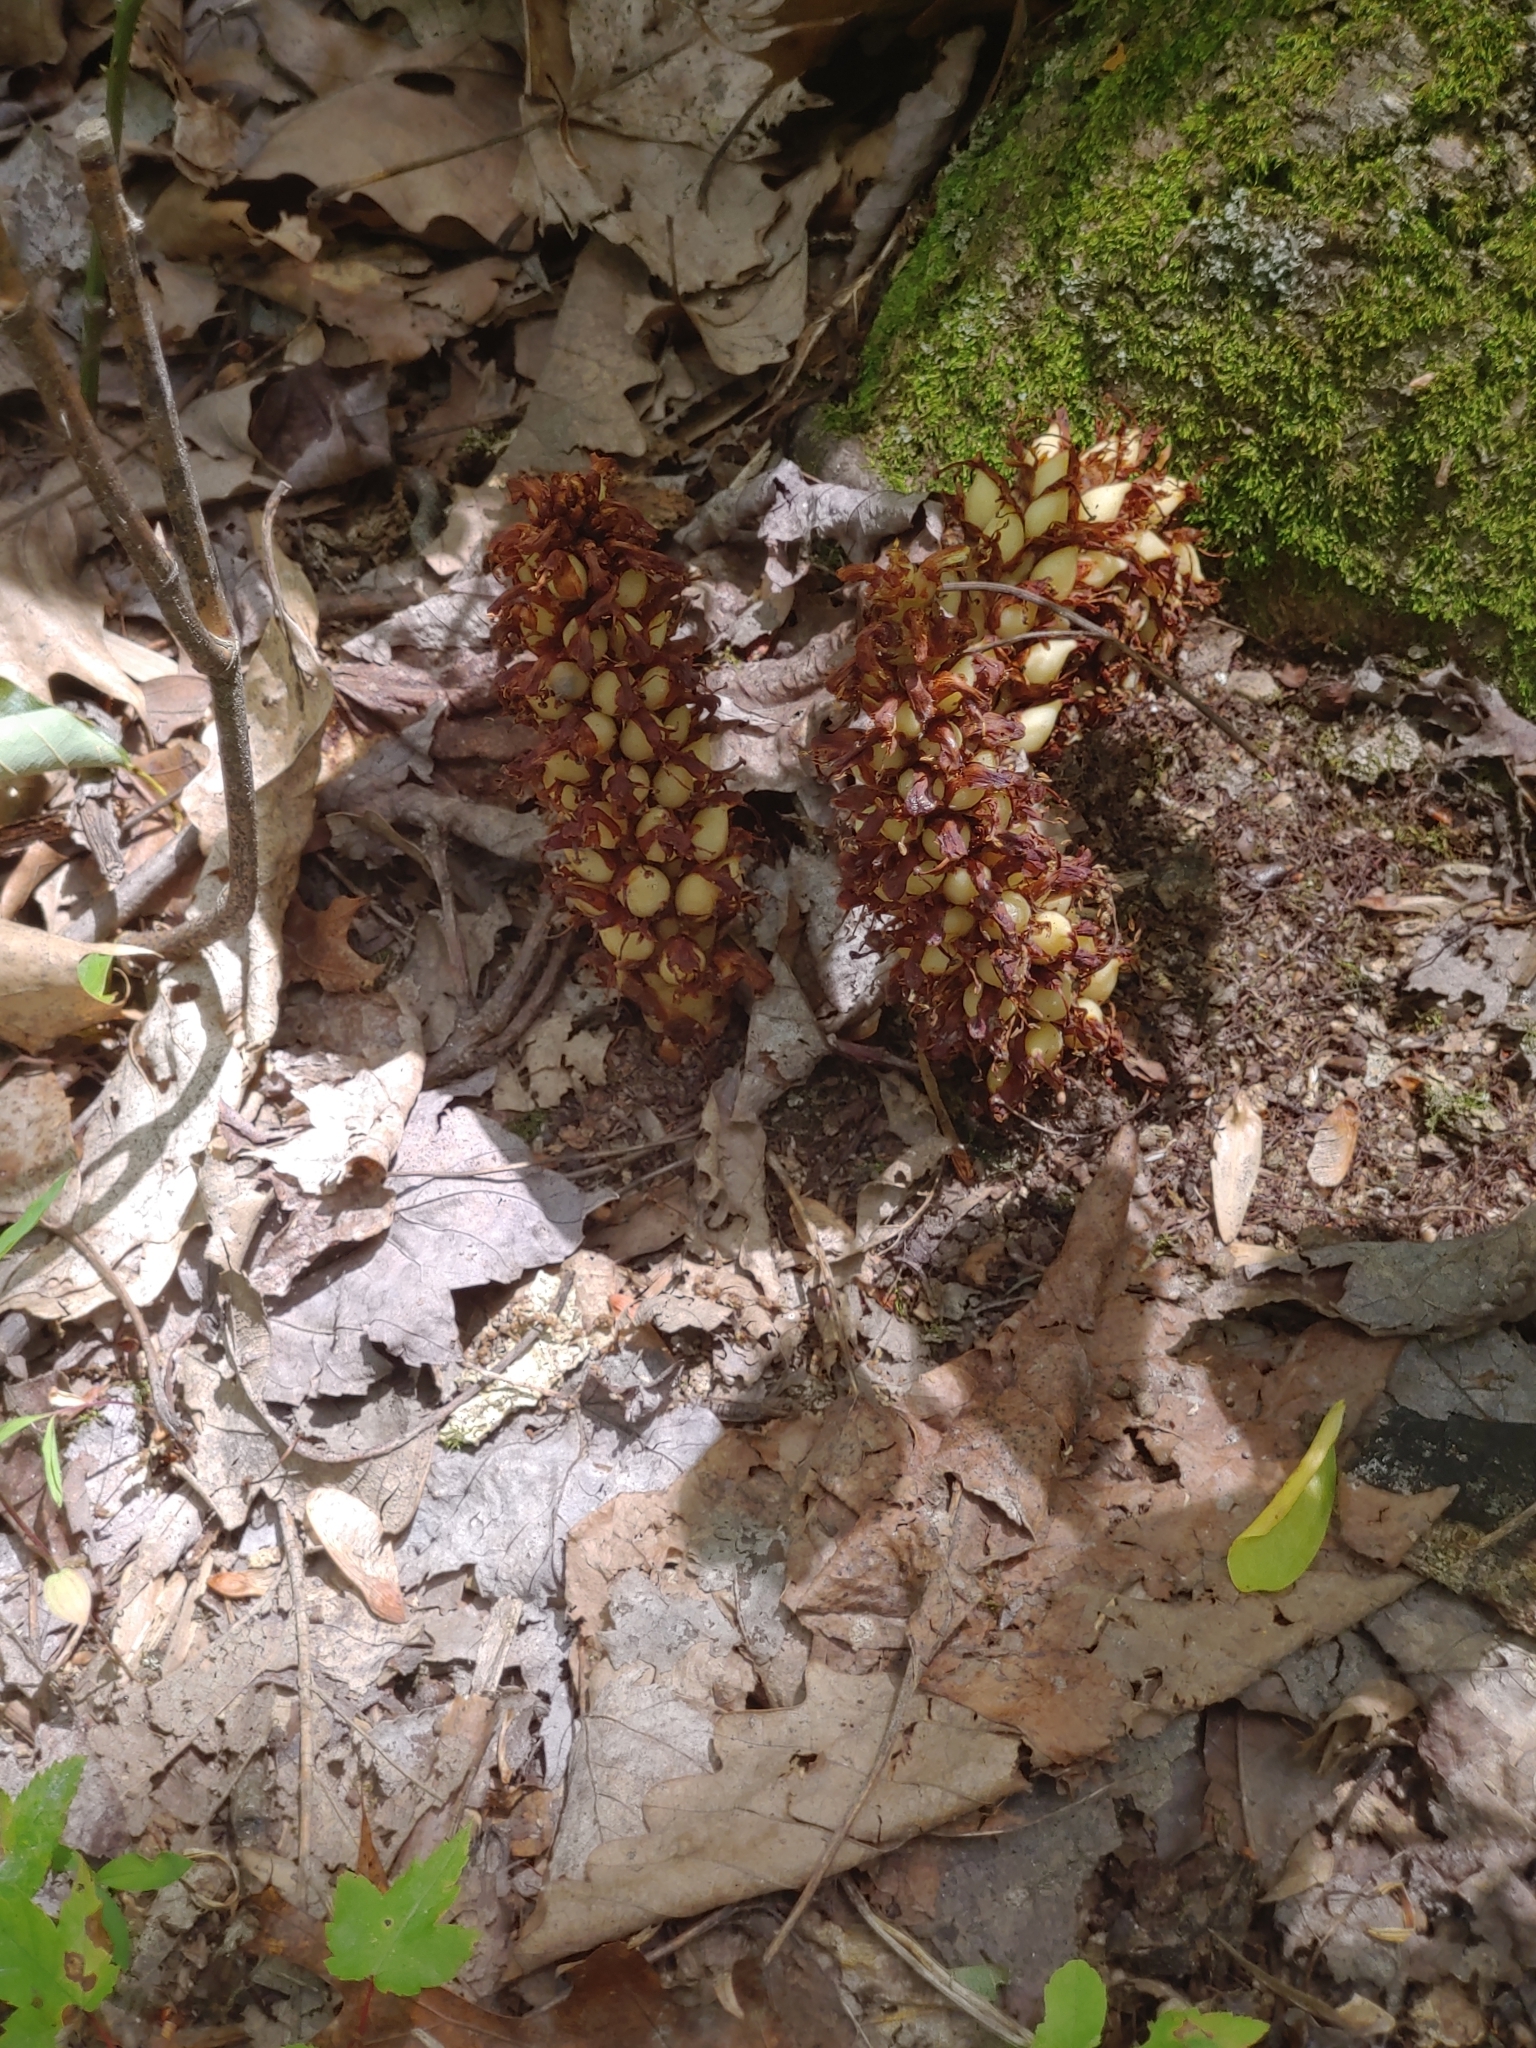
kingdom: Plantae
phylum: Tracheophyta
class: Magnoliopsida
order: Lamiales
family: Orobanchaceae
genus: Conopholis
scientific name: Conopholis americana
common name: American cancer-root
